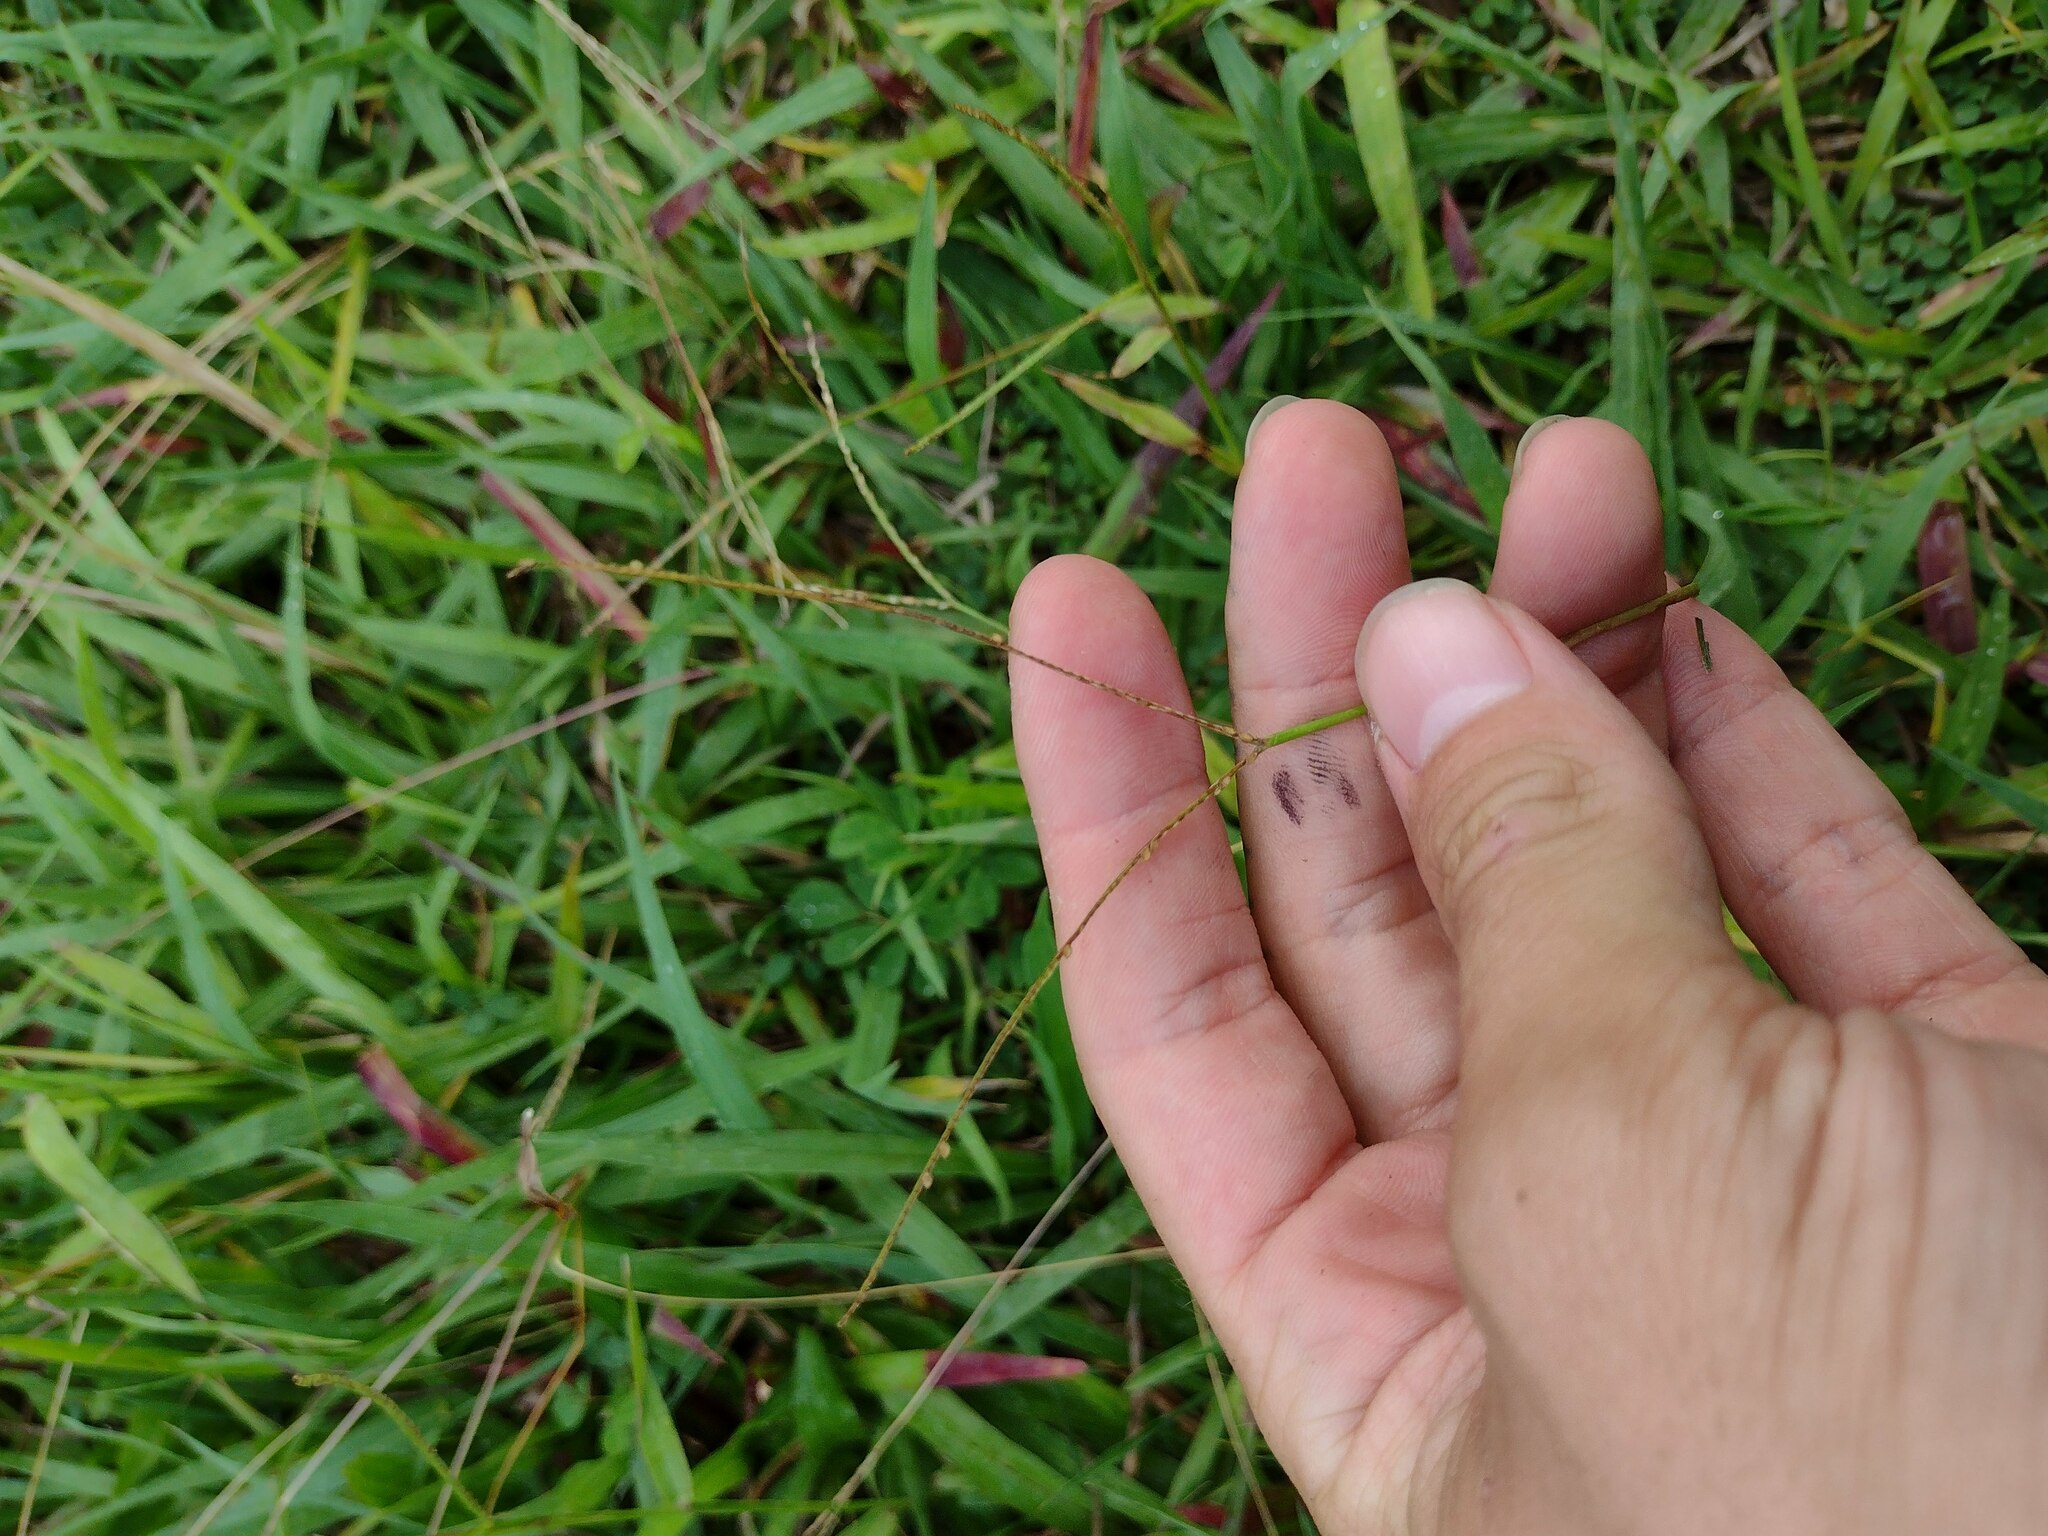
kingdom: Plantae
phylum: Tracheophyta
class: Liliopsida
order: Poales
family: Poaceae
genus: Paspalum
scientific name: Paspalum conjugatum
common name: Hilograss
